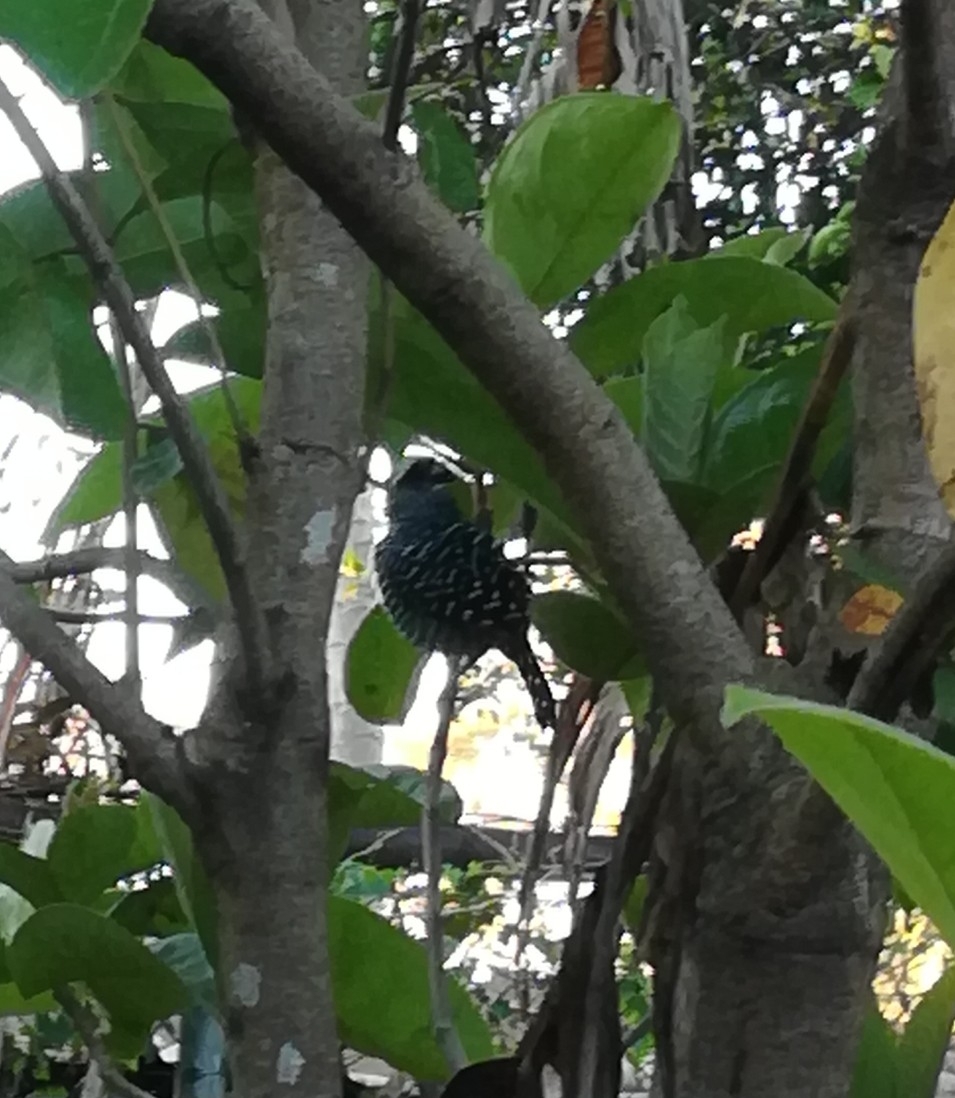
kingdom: Animalia
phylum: Chordata
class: Aves
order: Passeriformes
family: Thamnophilidae
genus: Thamnophilus
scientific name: Thamnophilus doliatus
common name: Barred antshrike
